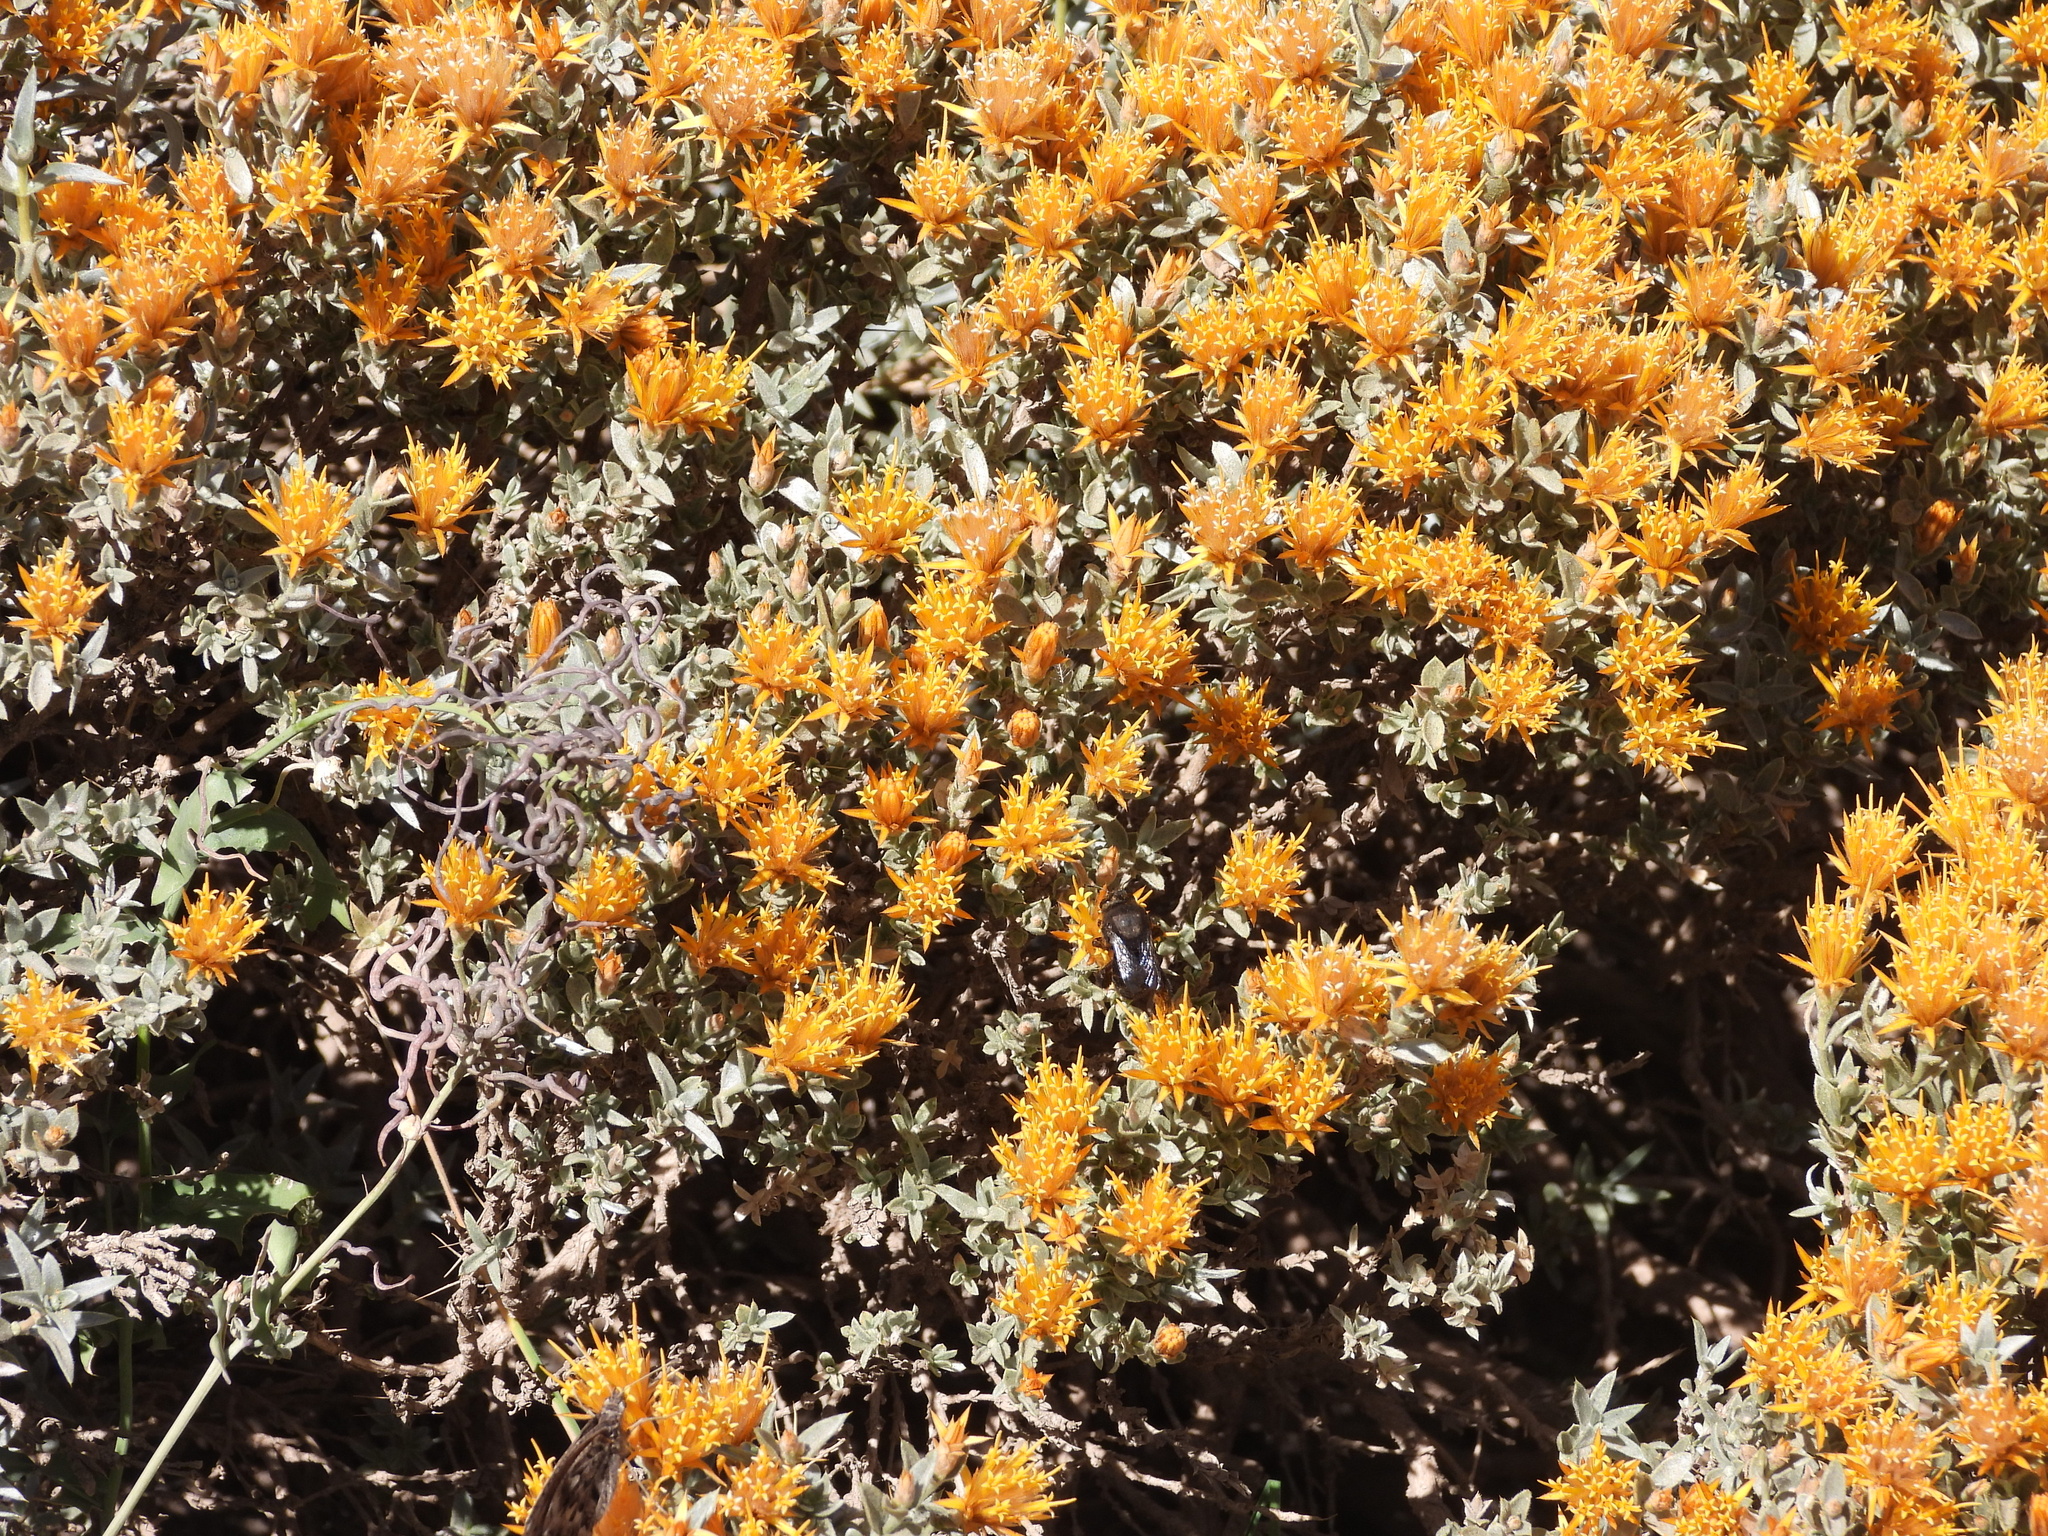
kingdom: Plantae
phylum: Tracheophyta
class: Magnoliopsida
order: Asterales
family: Asteraceae
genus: Chuquiraga
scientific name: Chuquiraga oppositifolia
